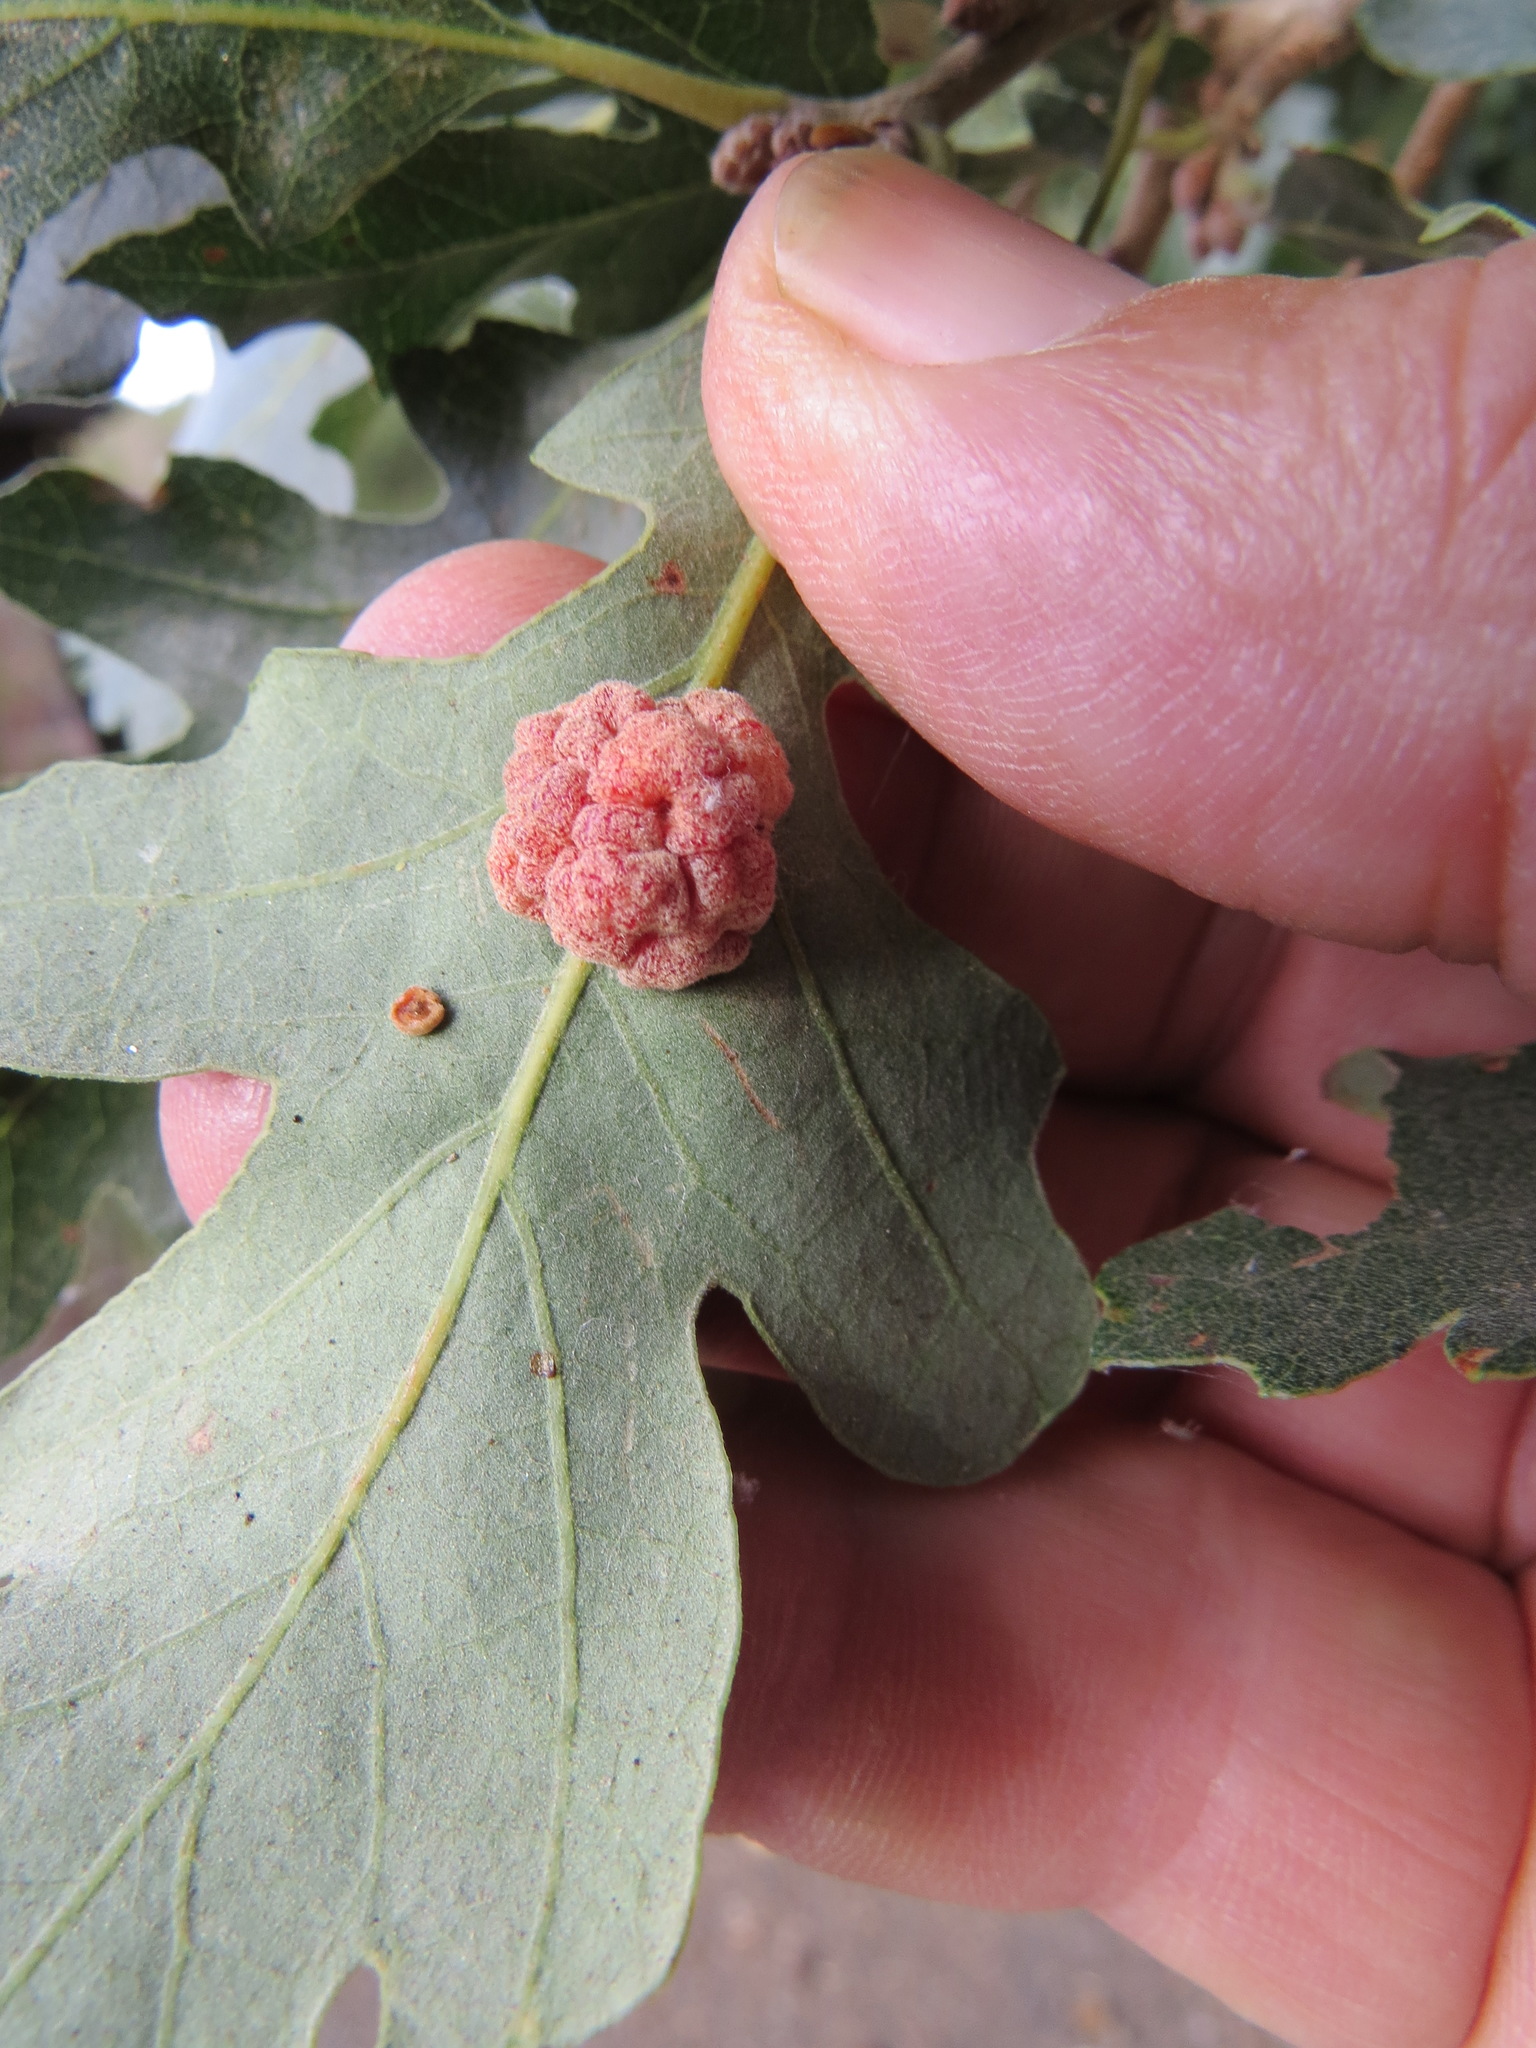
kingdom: Animalia
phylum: Arthropoda
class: Insecta
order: Hymenoptera
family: Cynipidae
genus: Andricus
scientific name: Andricus
